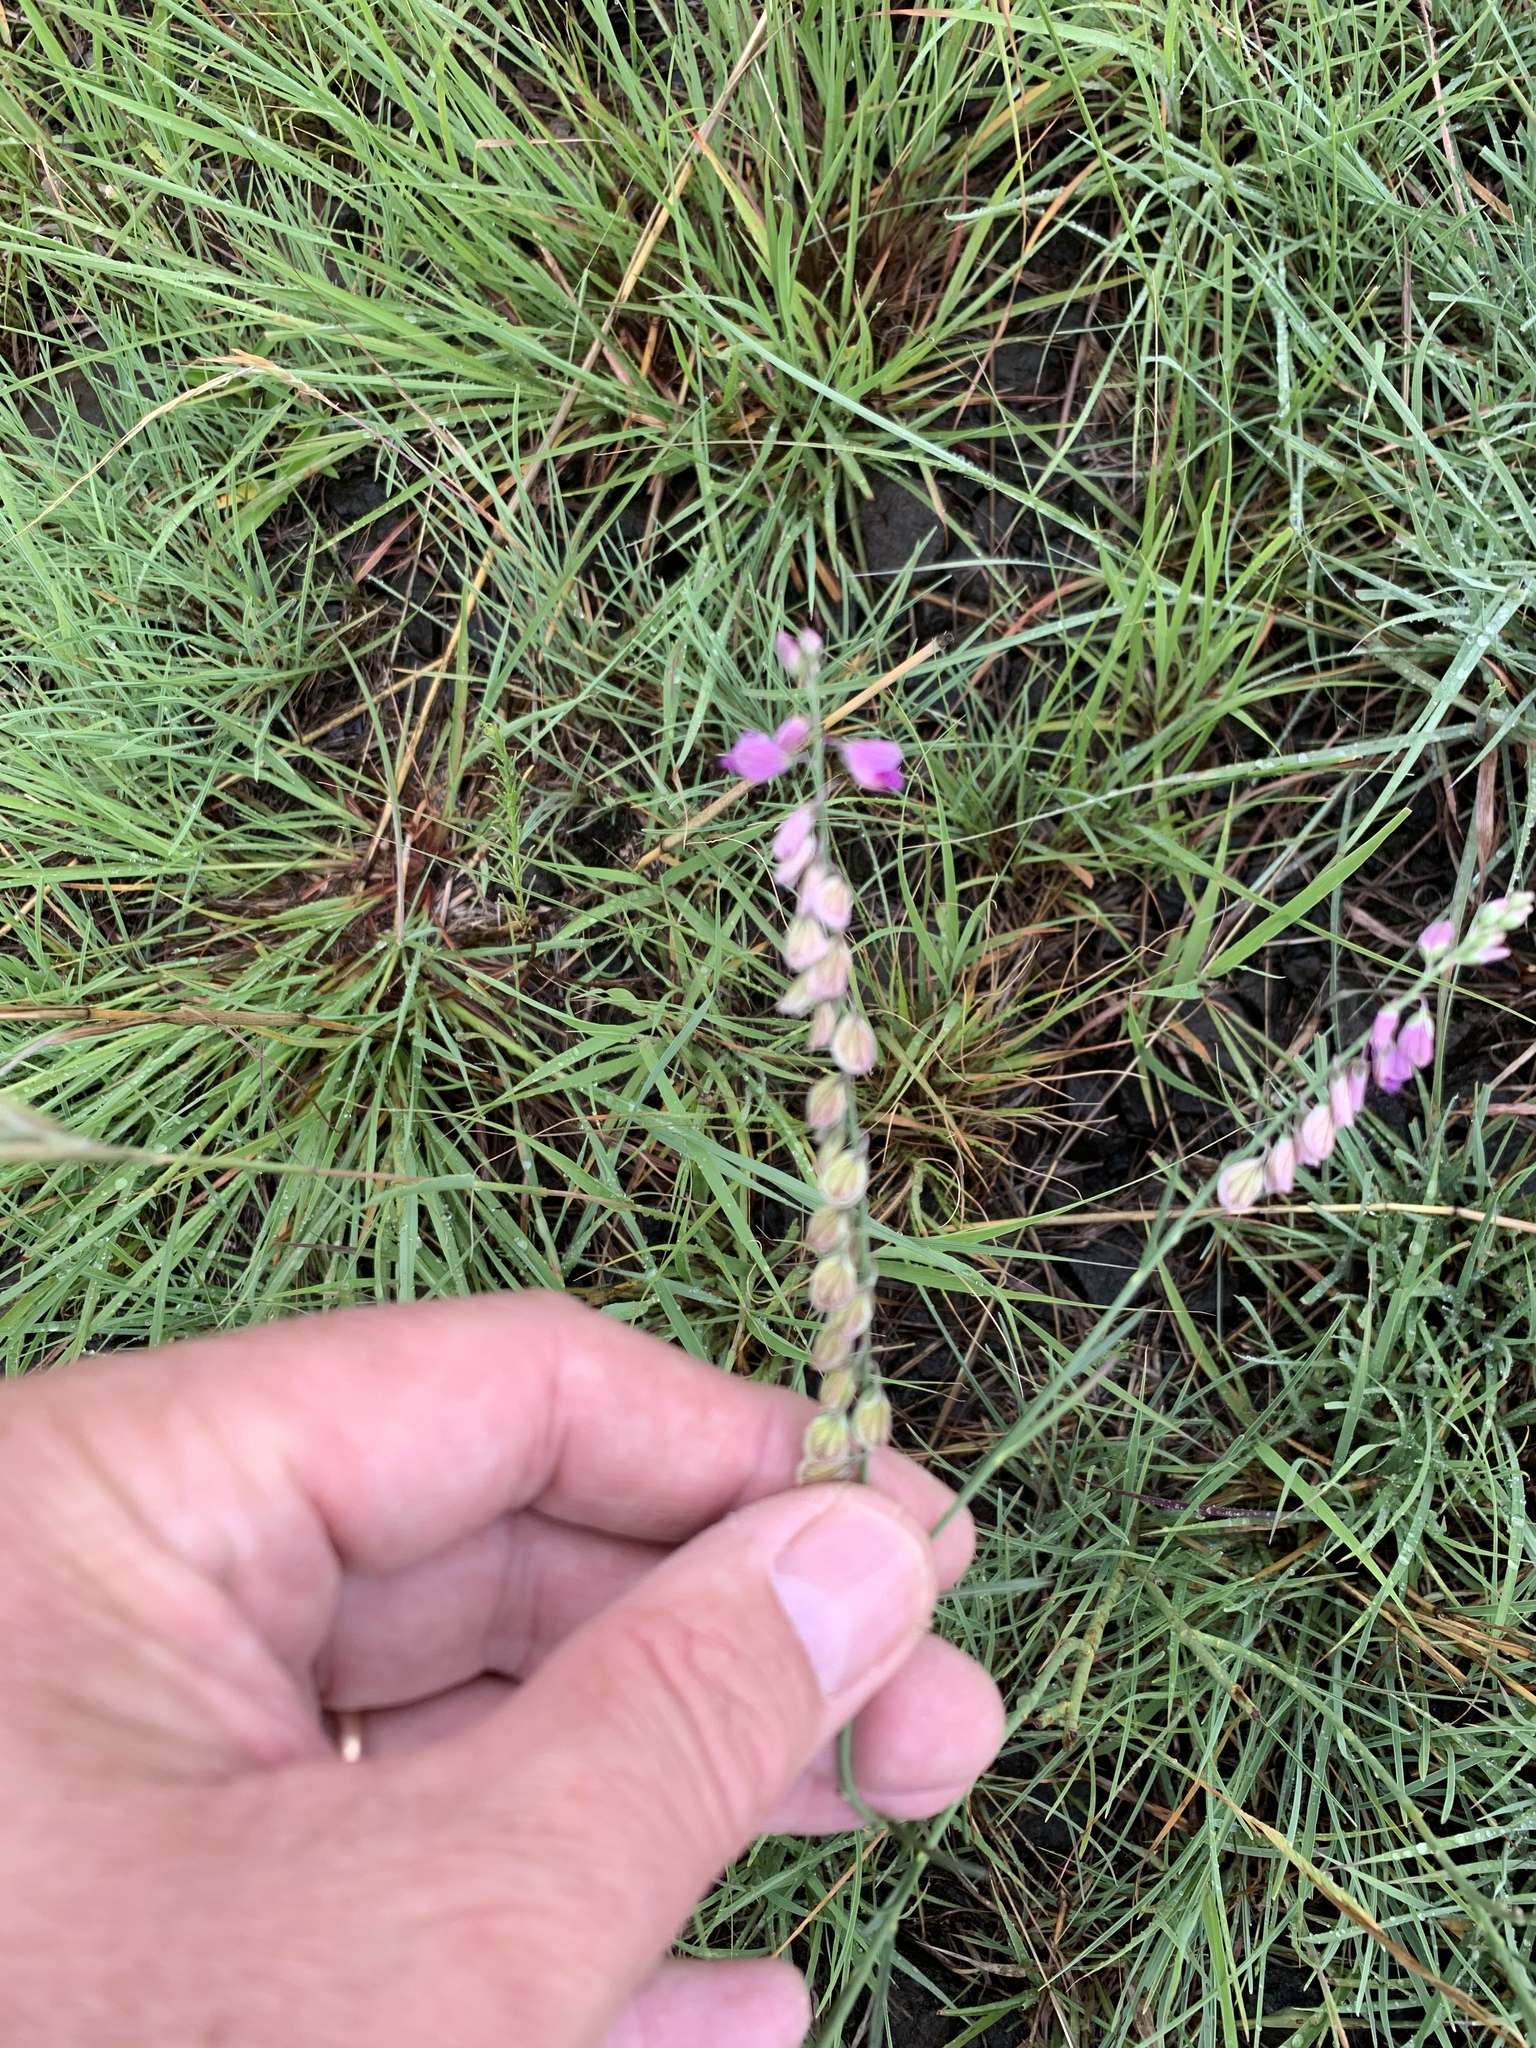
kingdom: Plantae
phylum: Tracheophyta
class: Magnoliopsida
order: Fabales
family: Polygalaceae
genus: Polygala
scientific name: Polygala hottentotta
